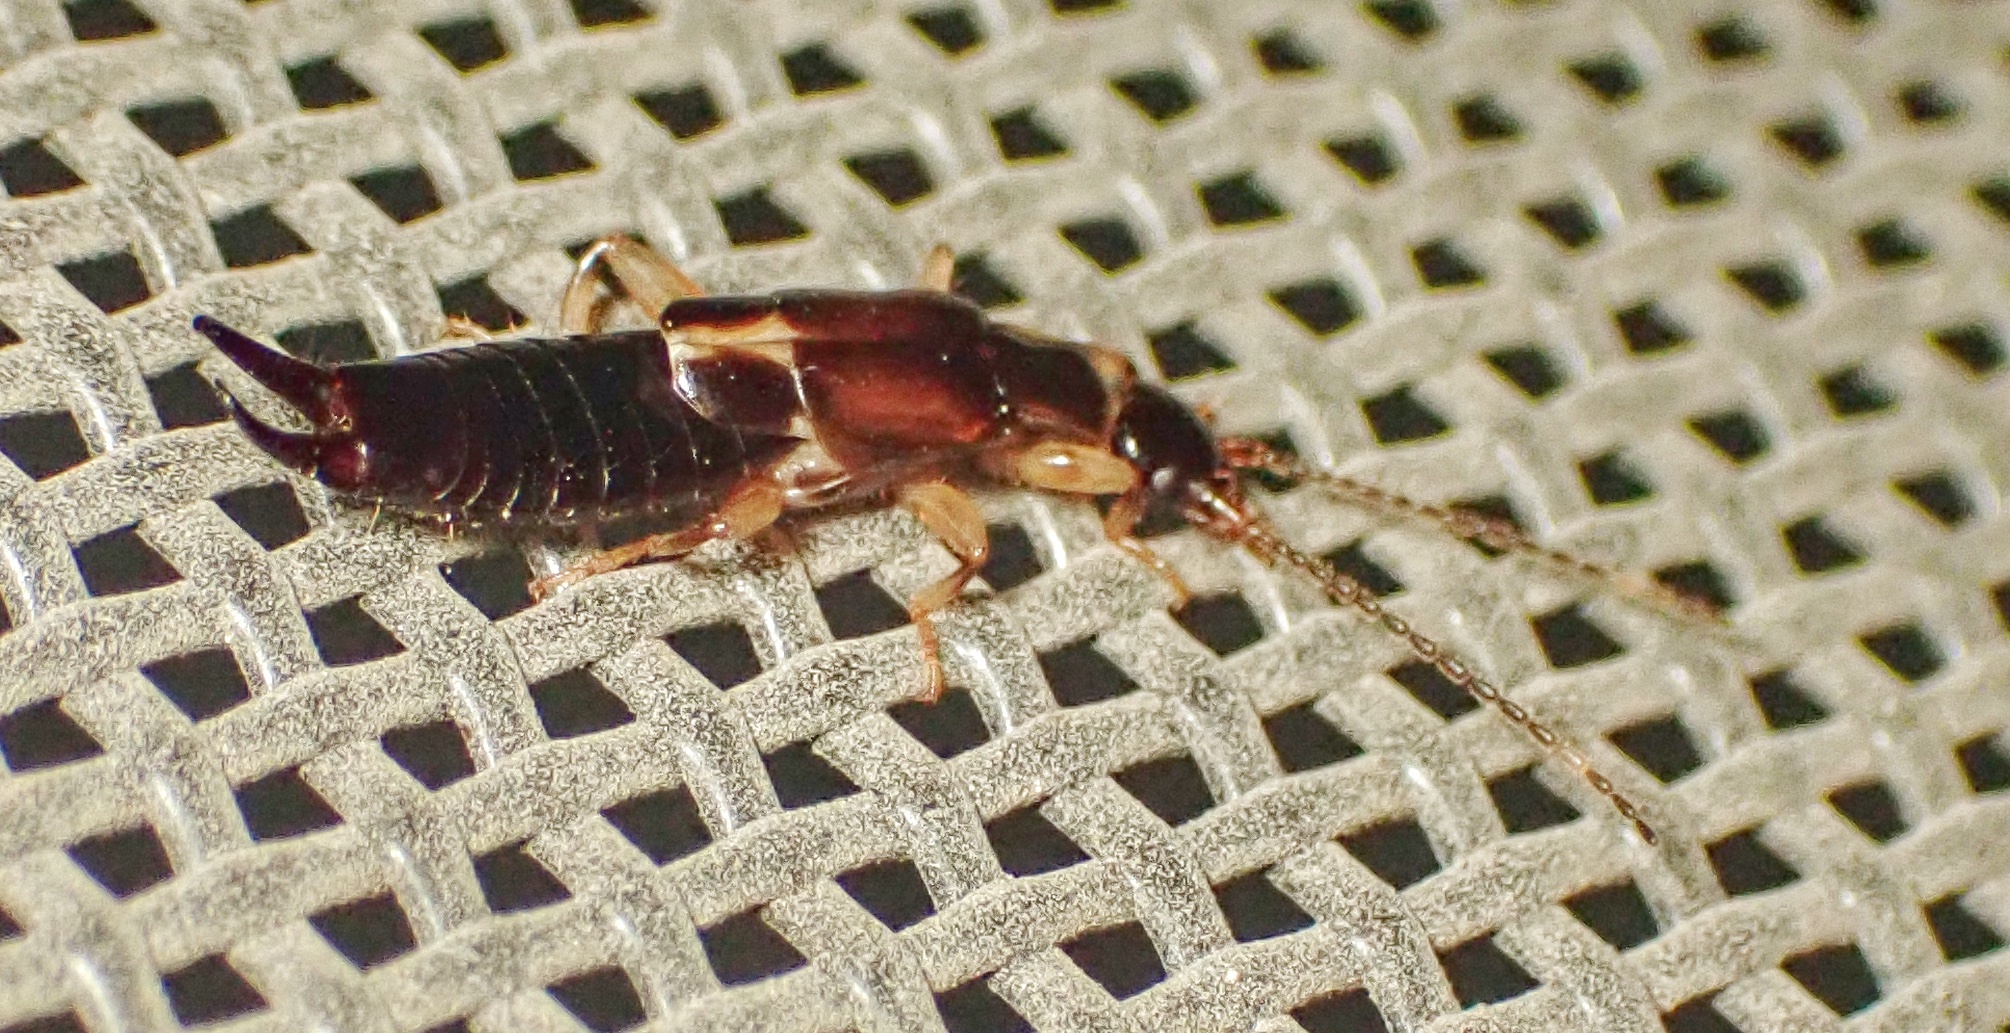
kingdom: Animalia
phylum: Arthropoda
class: Insecta
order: Dermaptera
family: Anisolabididae
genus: Euborellia
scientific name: Euborellia cincticollis
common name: African earwig
